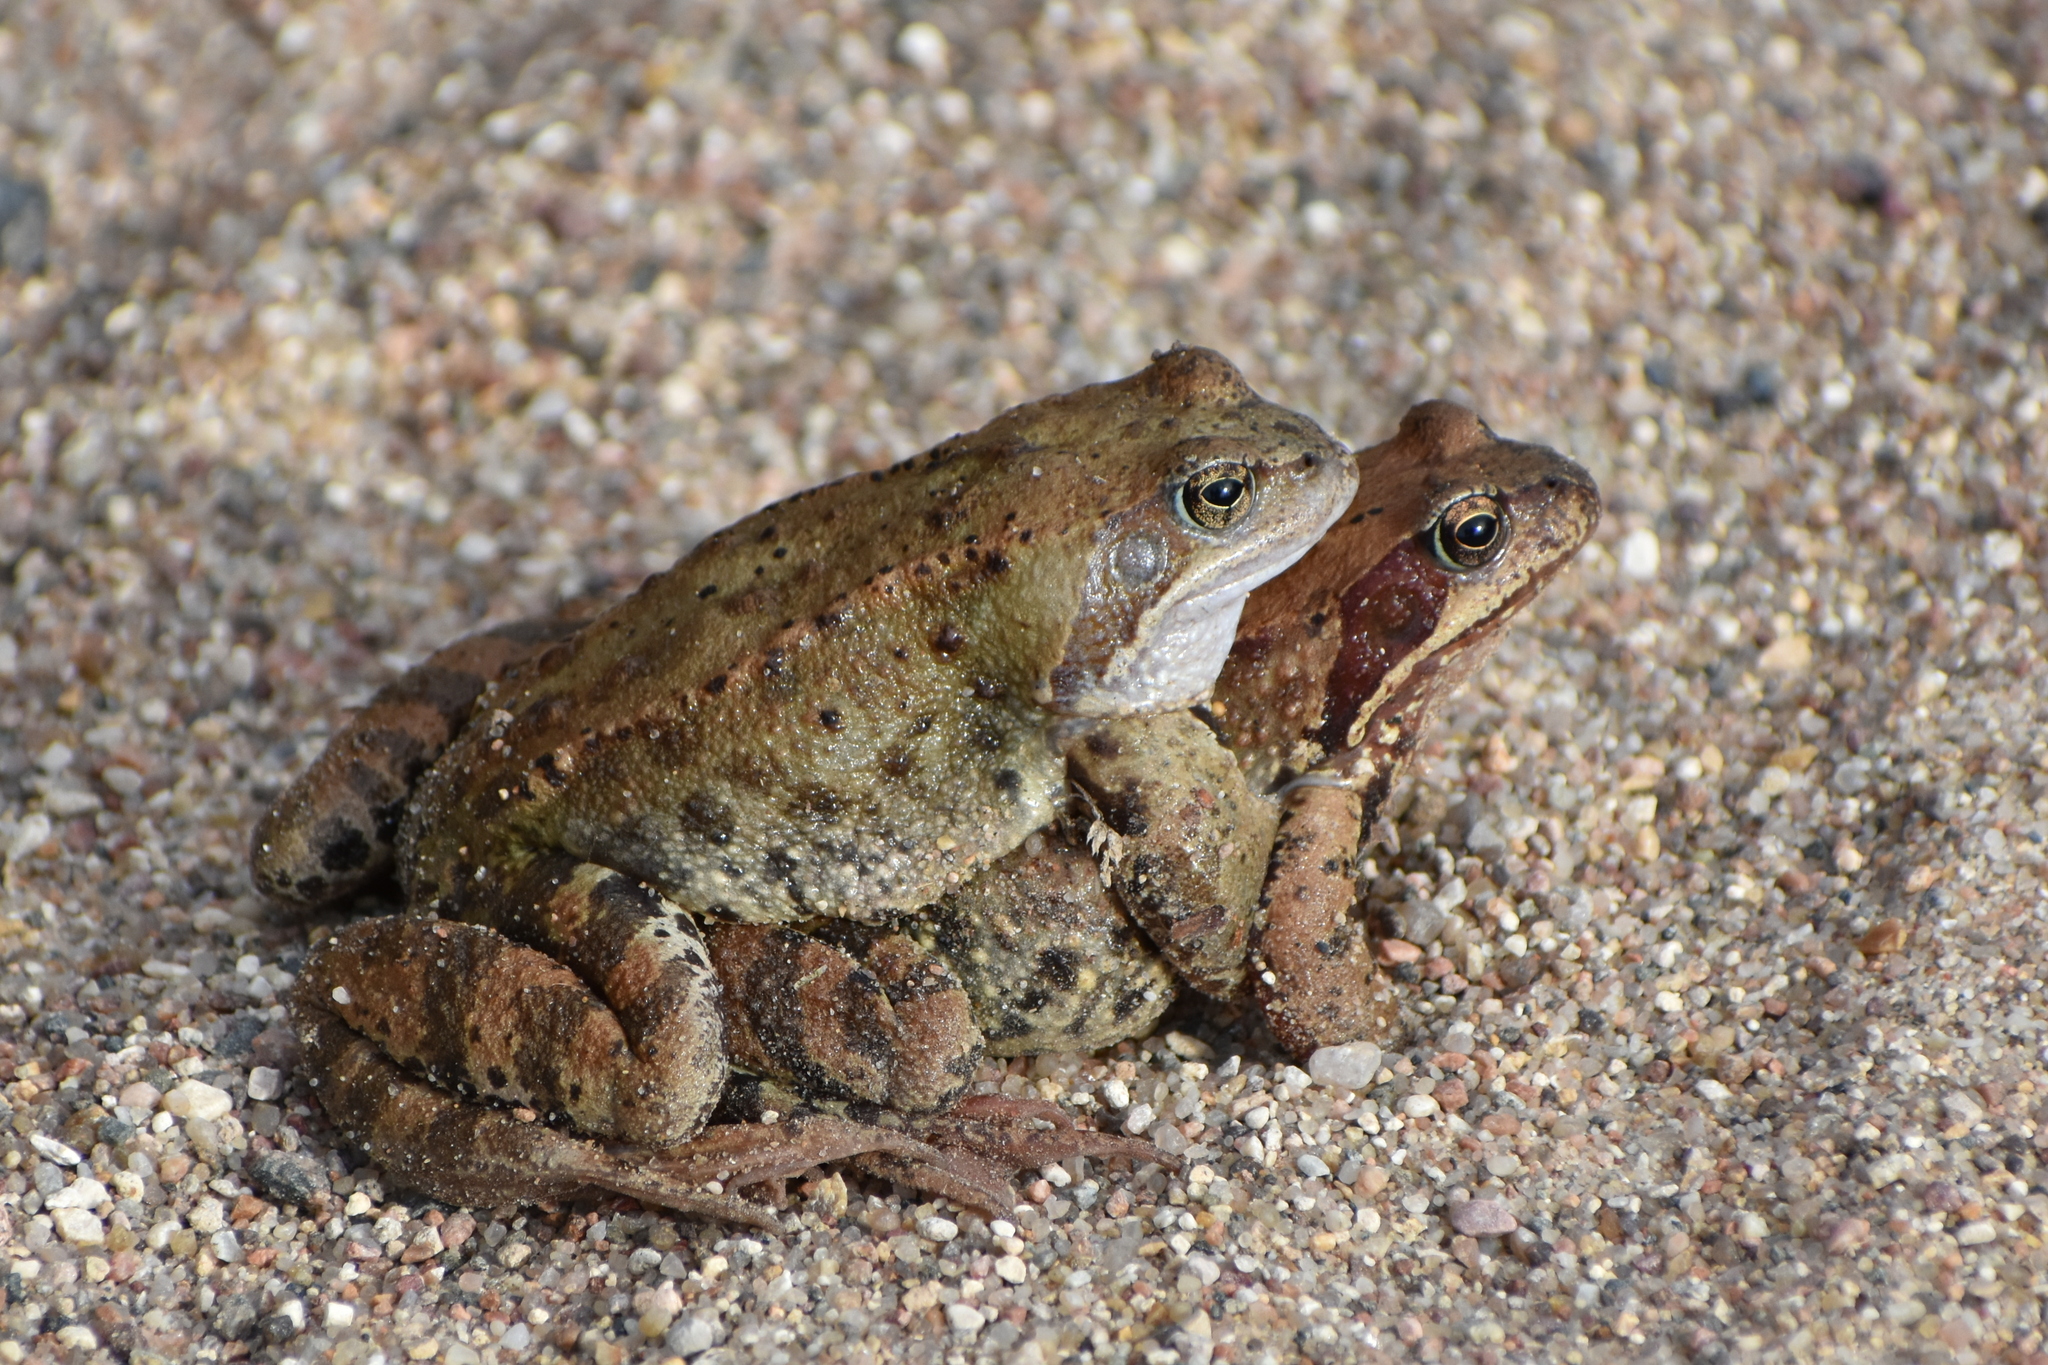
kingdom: Animalia
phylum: Chordata
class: Amphibia
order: Anura
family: Ranidae
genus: Rana
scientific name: Rana temporaria
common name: Common frog
